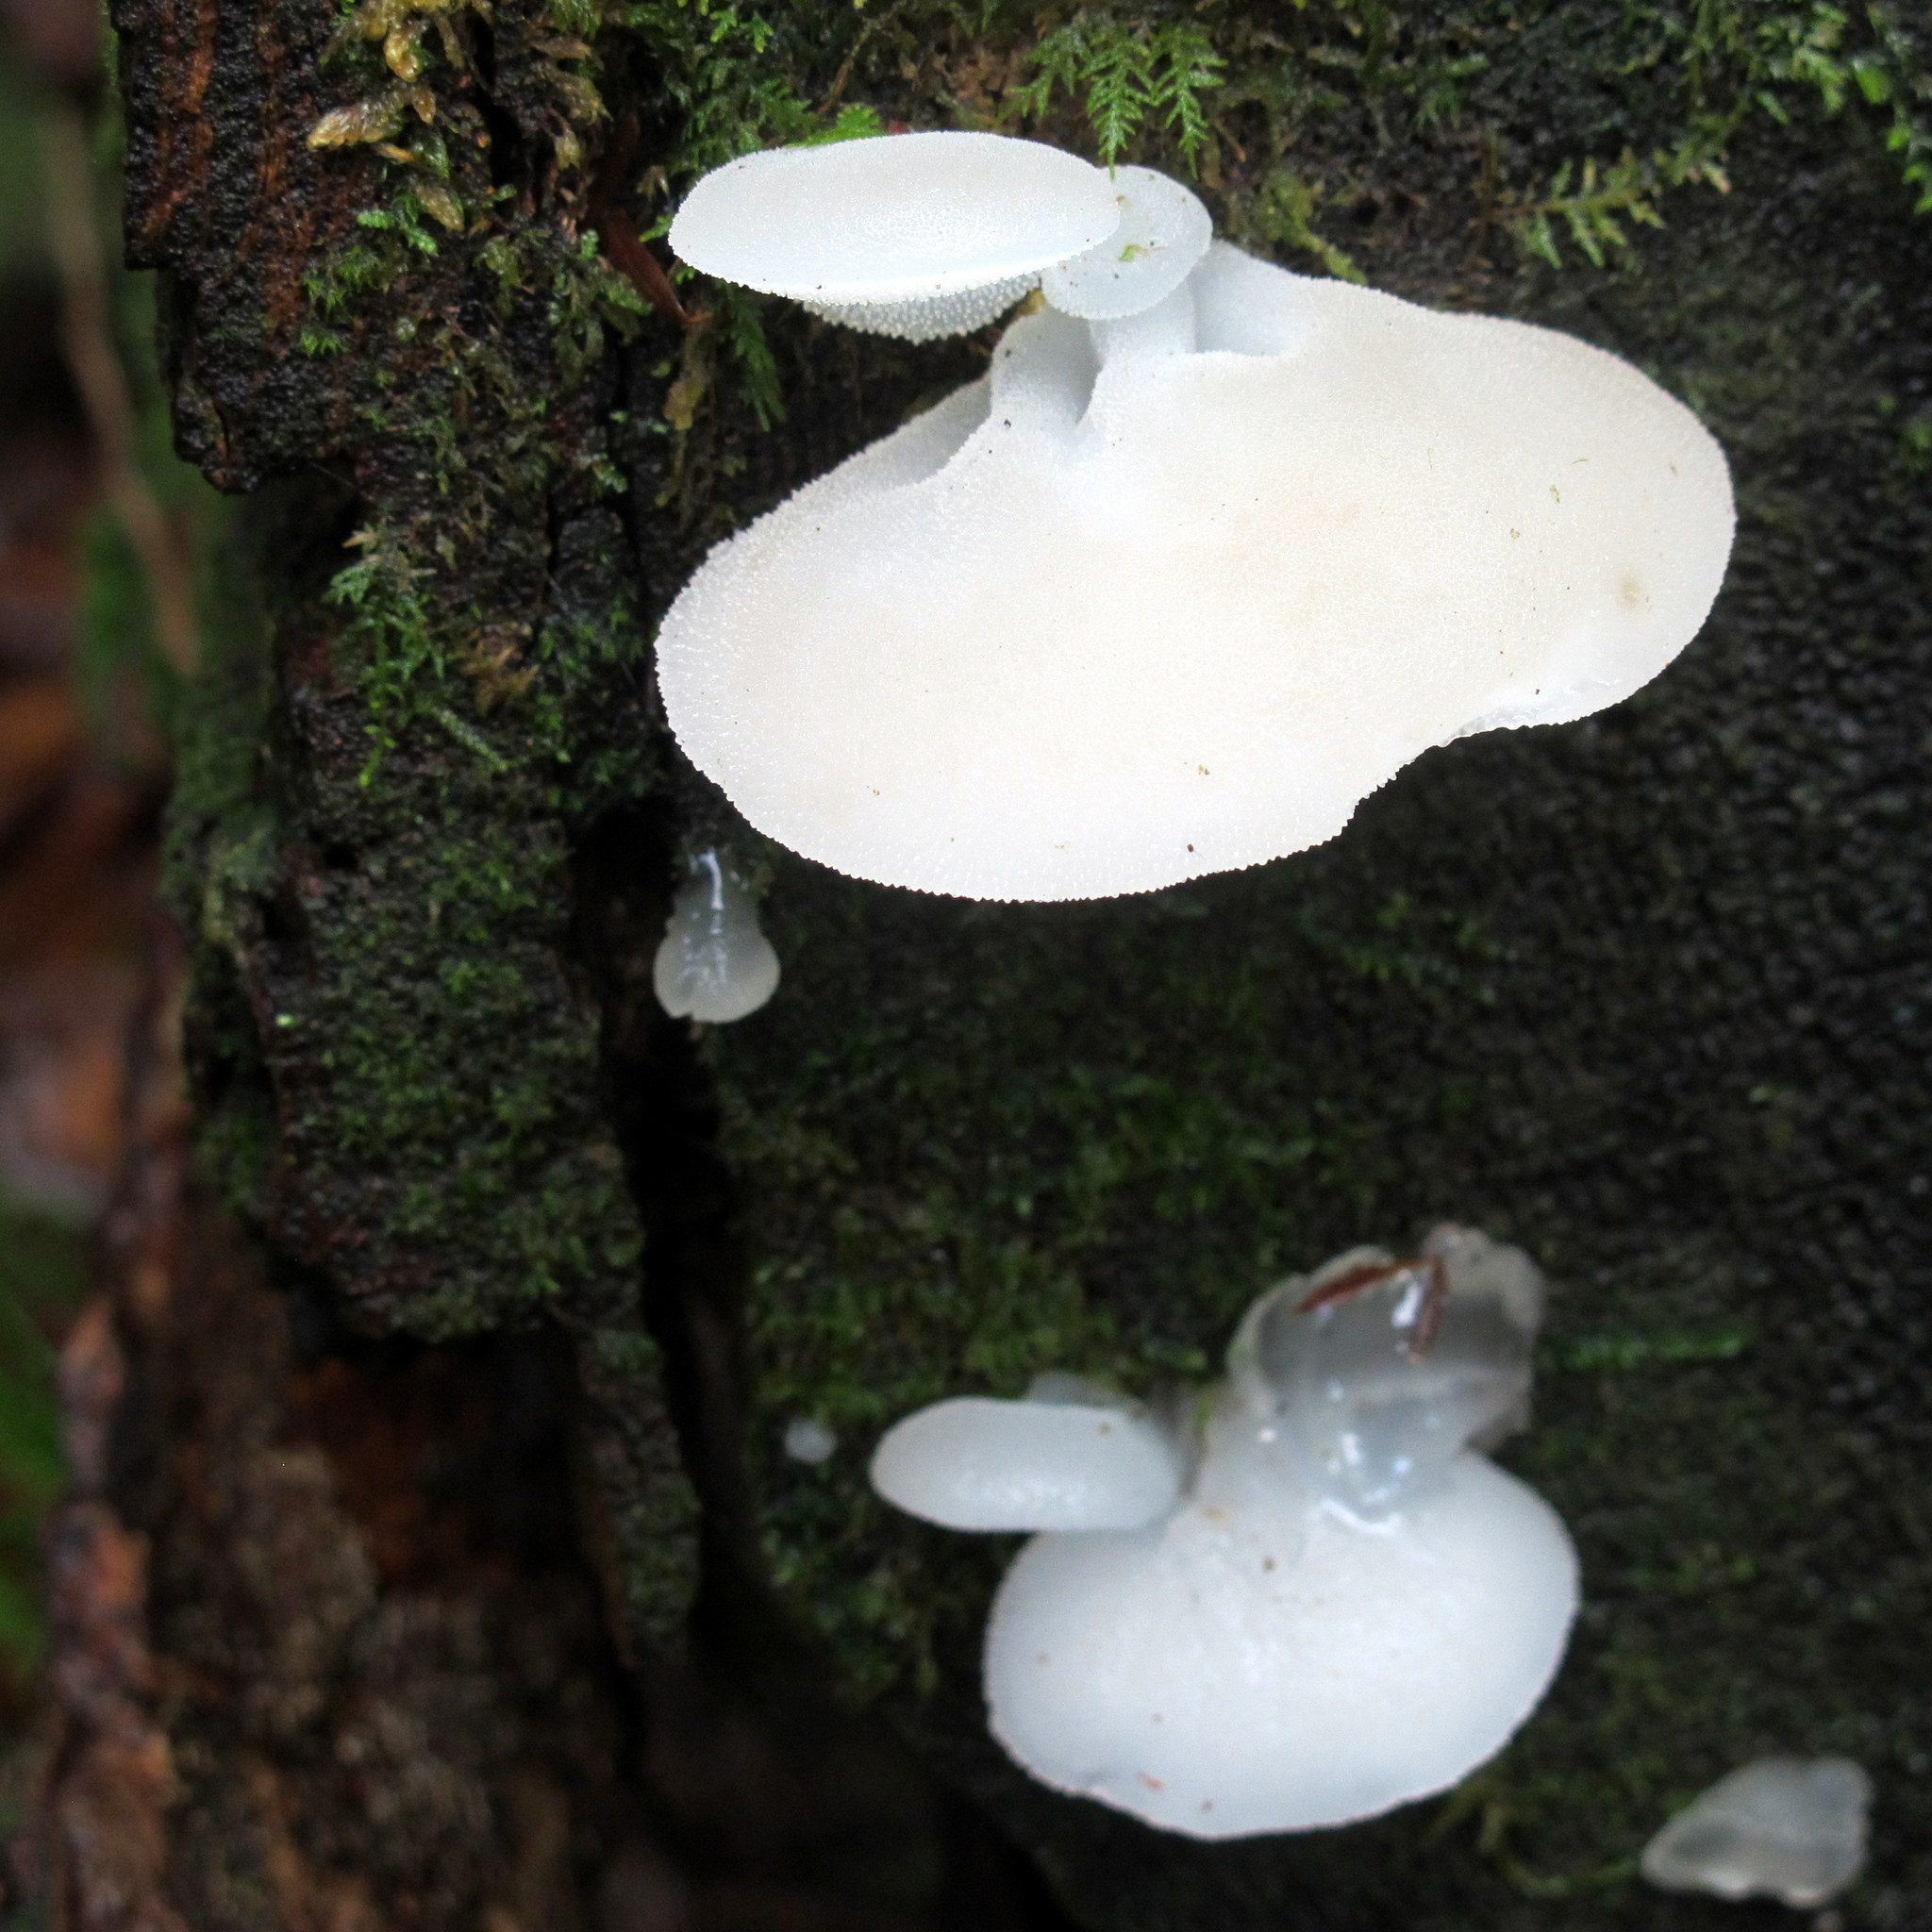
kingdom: Fungi
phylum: Basidiomycota
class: Agaricomycetes
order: Auriculariales
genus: Pseudohydnum
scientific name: Pseudohydnum gelatinosum
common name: Jelly tongue
